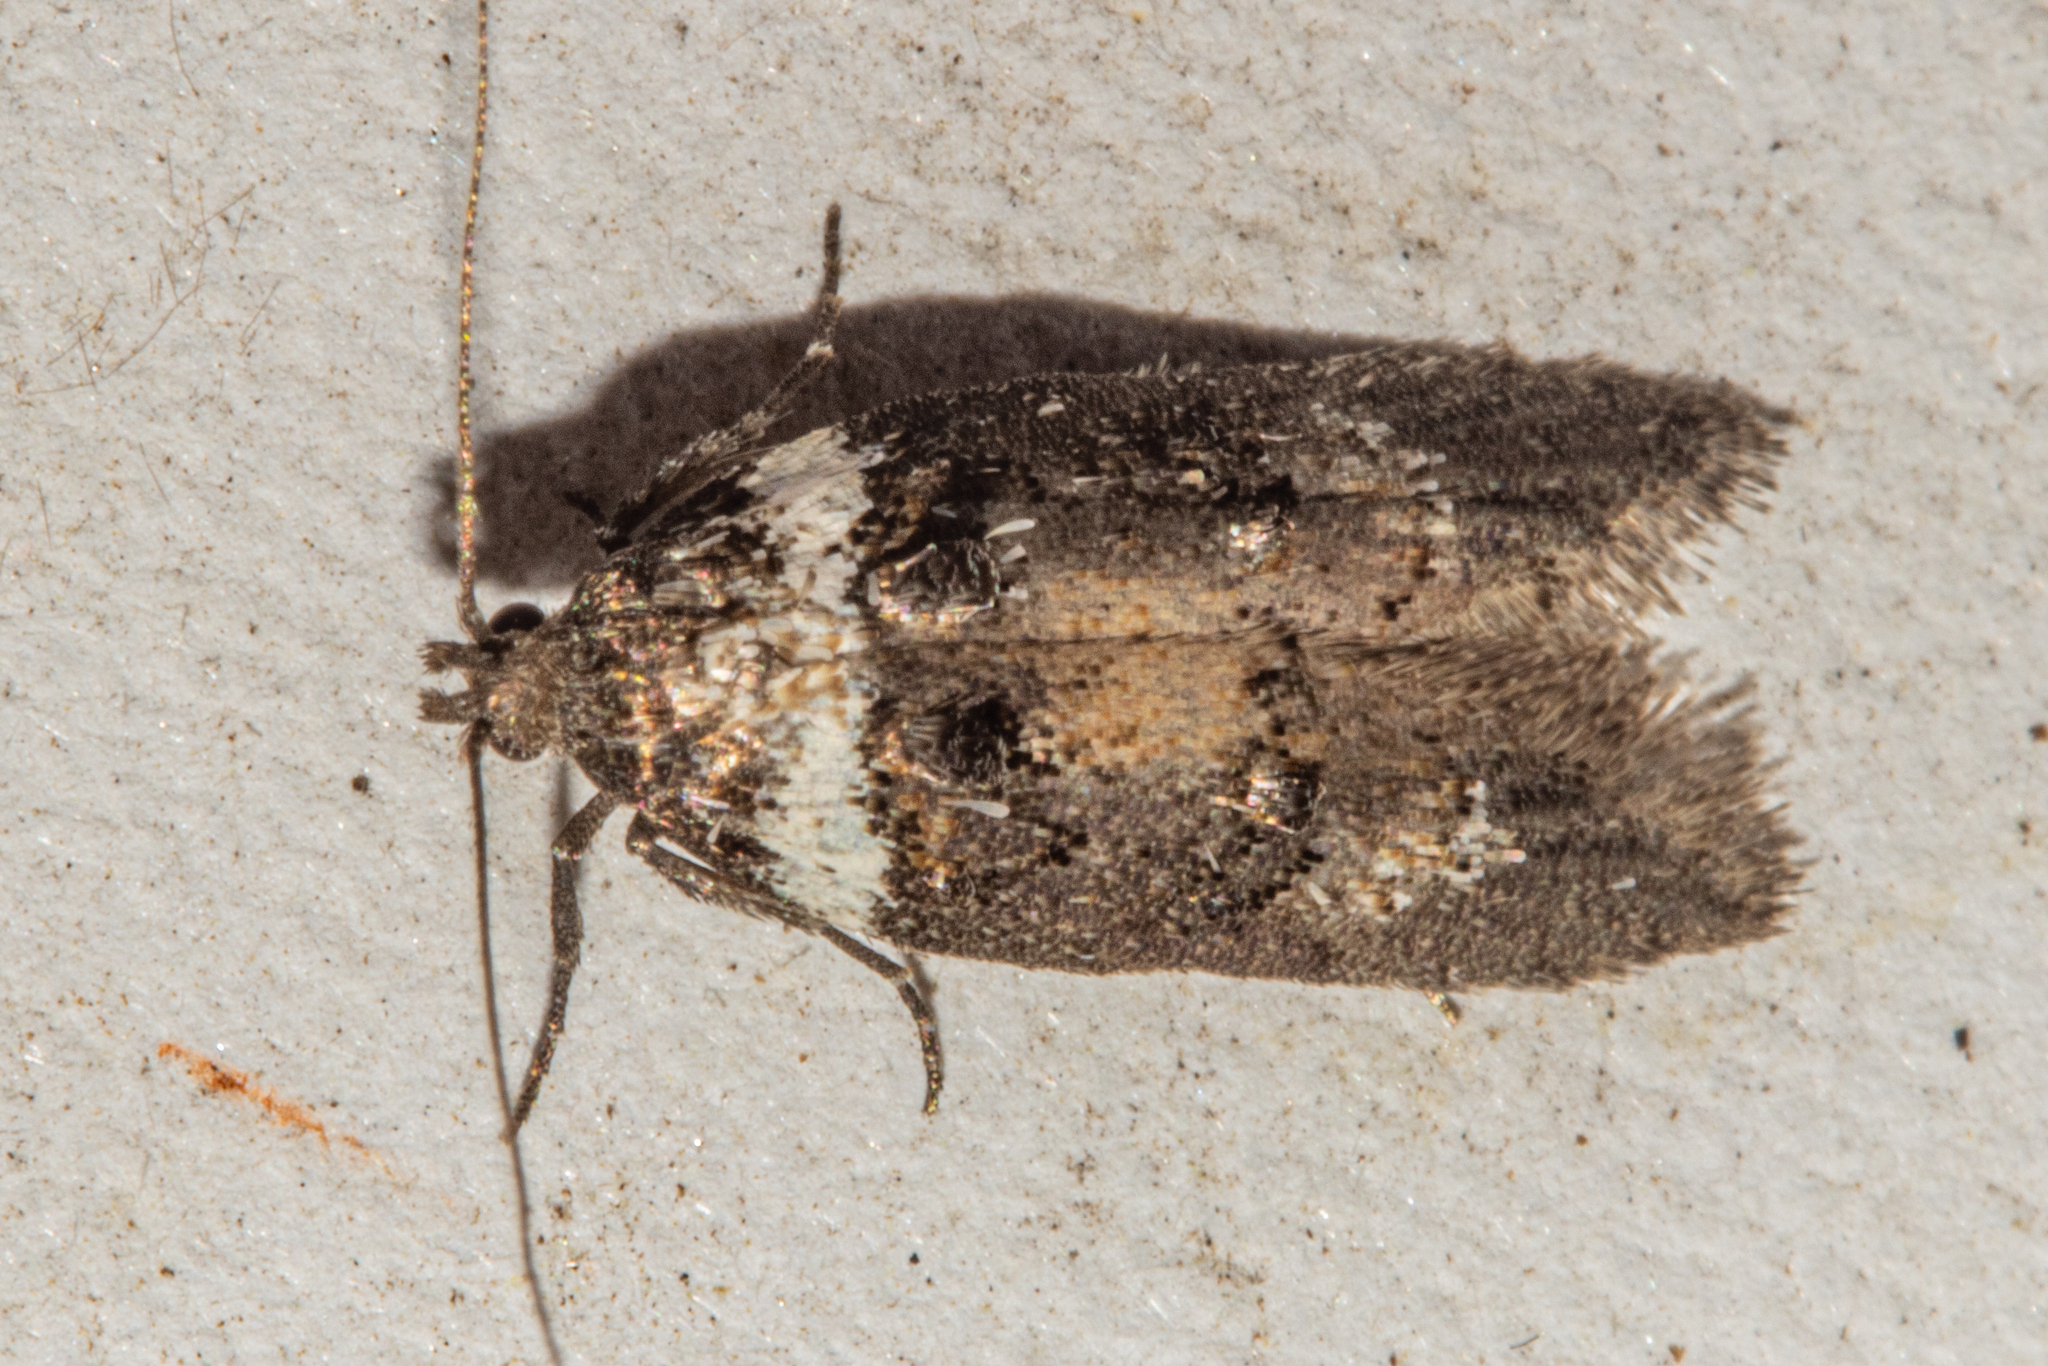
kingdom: Animalia
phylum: Arthropoda
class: Insecta
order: Lepidoptera
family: Oecophoridae
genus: Trachypepla
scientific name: Trachypepla conspicuella
